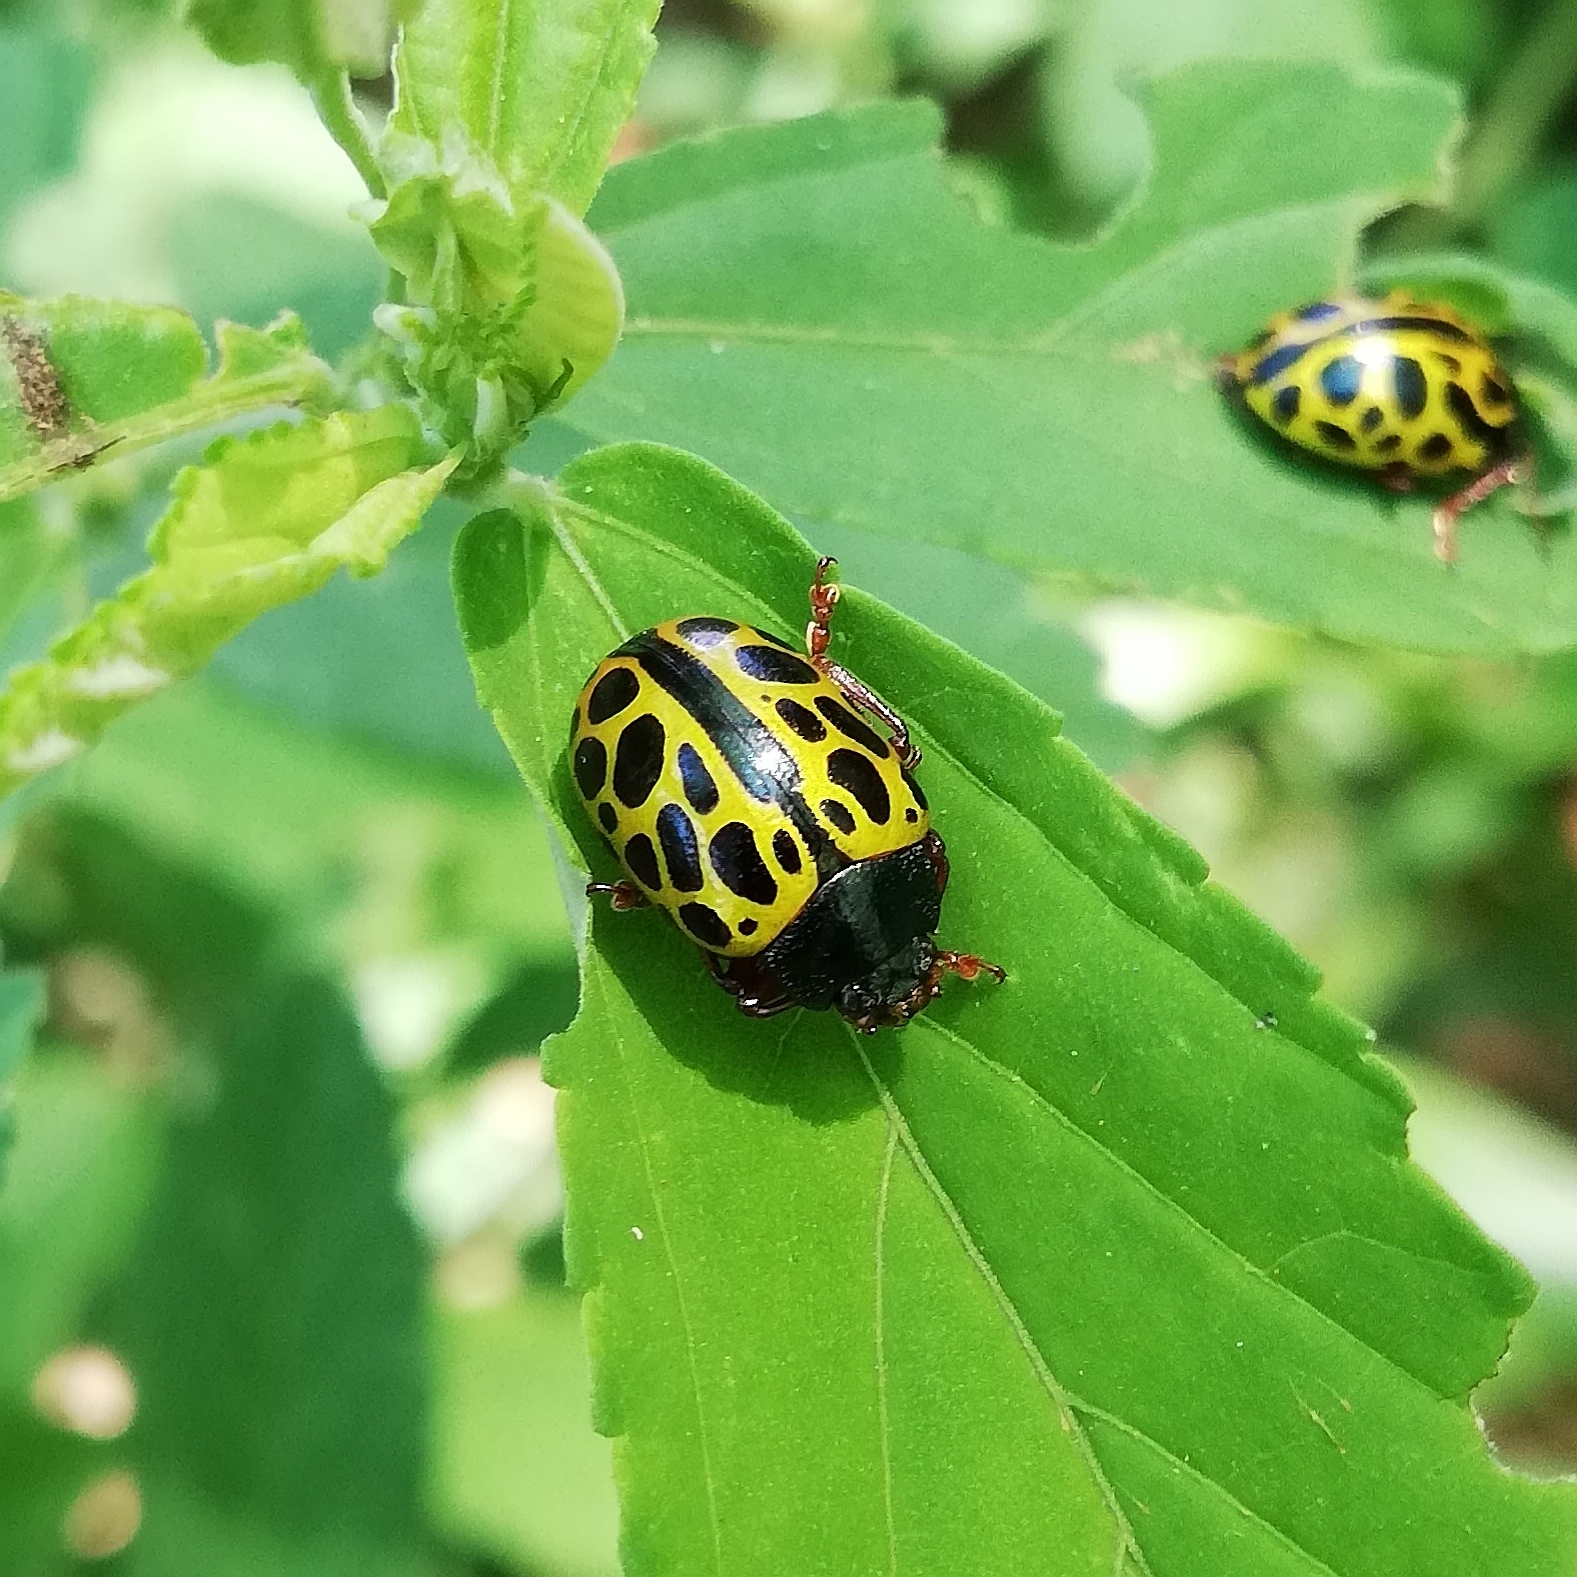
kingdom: Animalia
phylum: Arthropoda
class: Insecta
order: Coleoptera
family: Chrysomelidae
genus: Calligrapha
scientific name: Calligrapha polyspila
